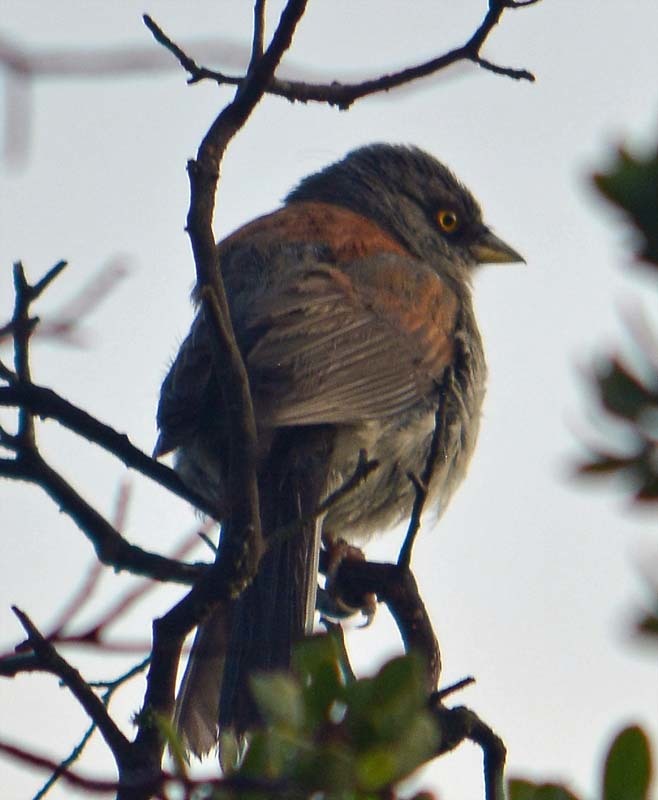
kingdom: Animalia
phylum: Chordata
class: Aves
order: Passeriformes
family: Passerellidae
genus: Junco
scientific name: Junco phaeonotus
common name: Yellow-eyed junco
